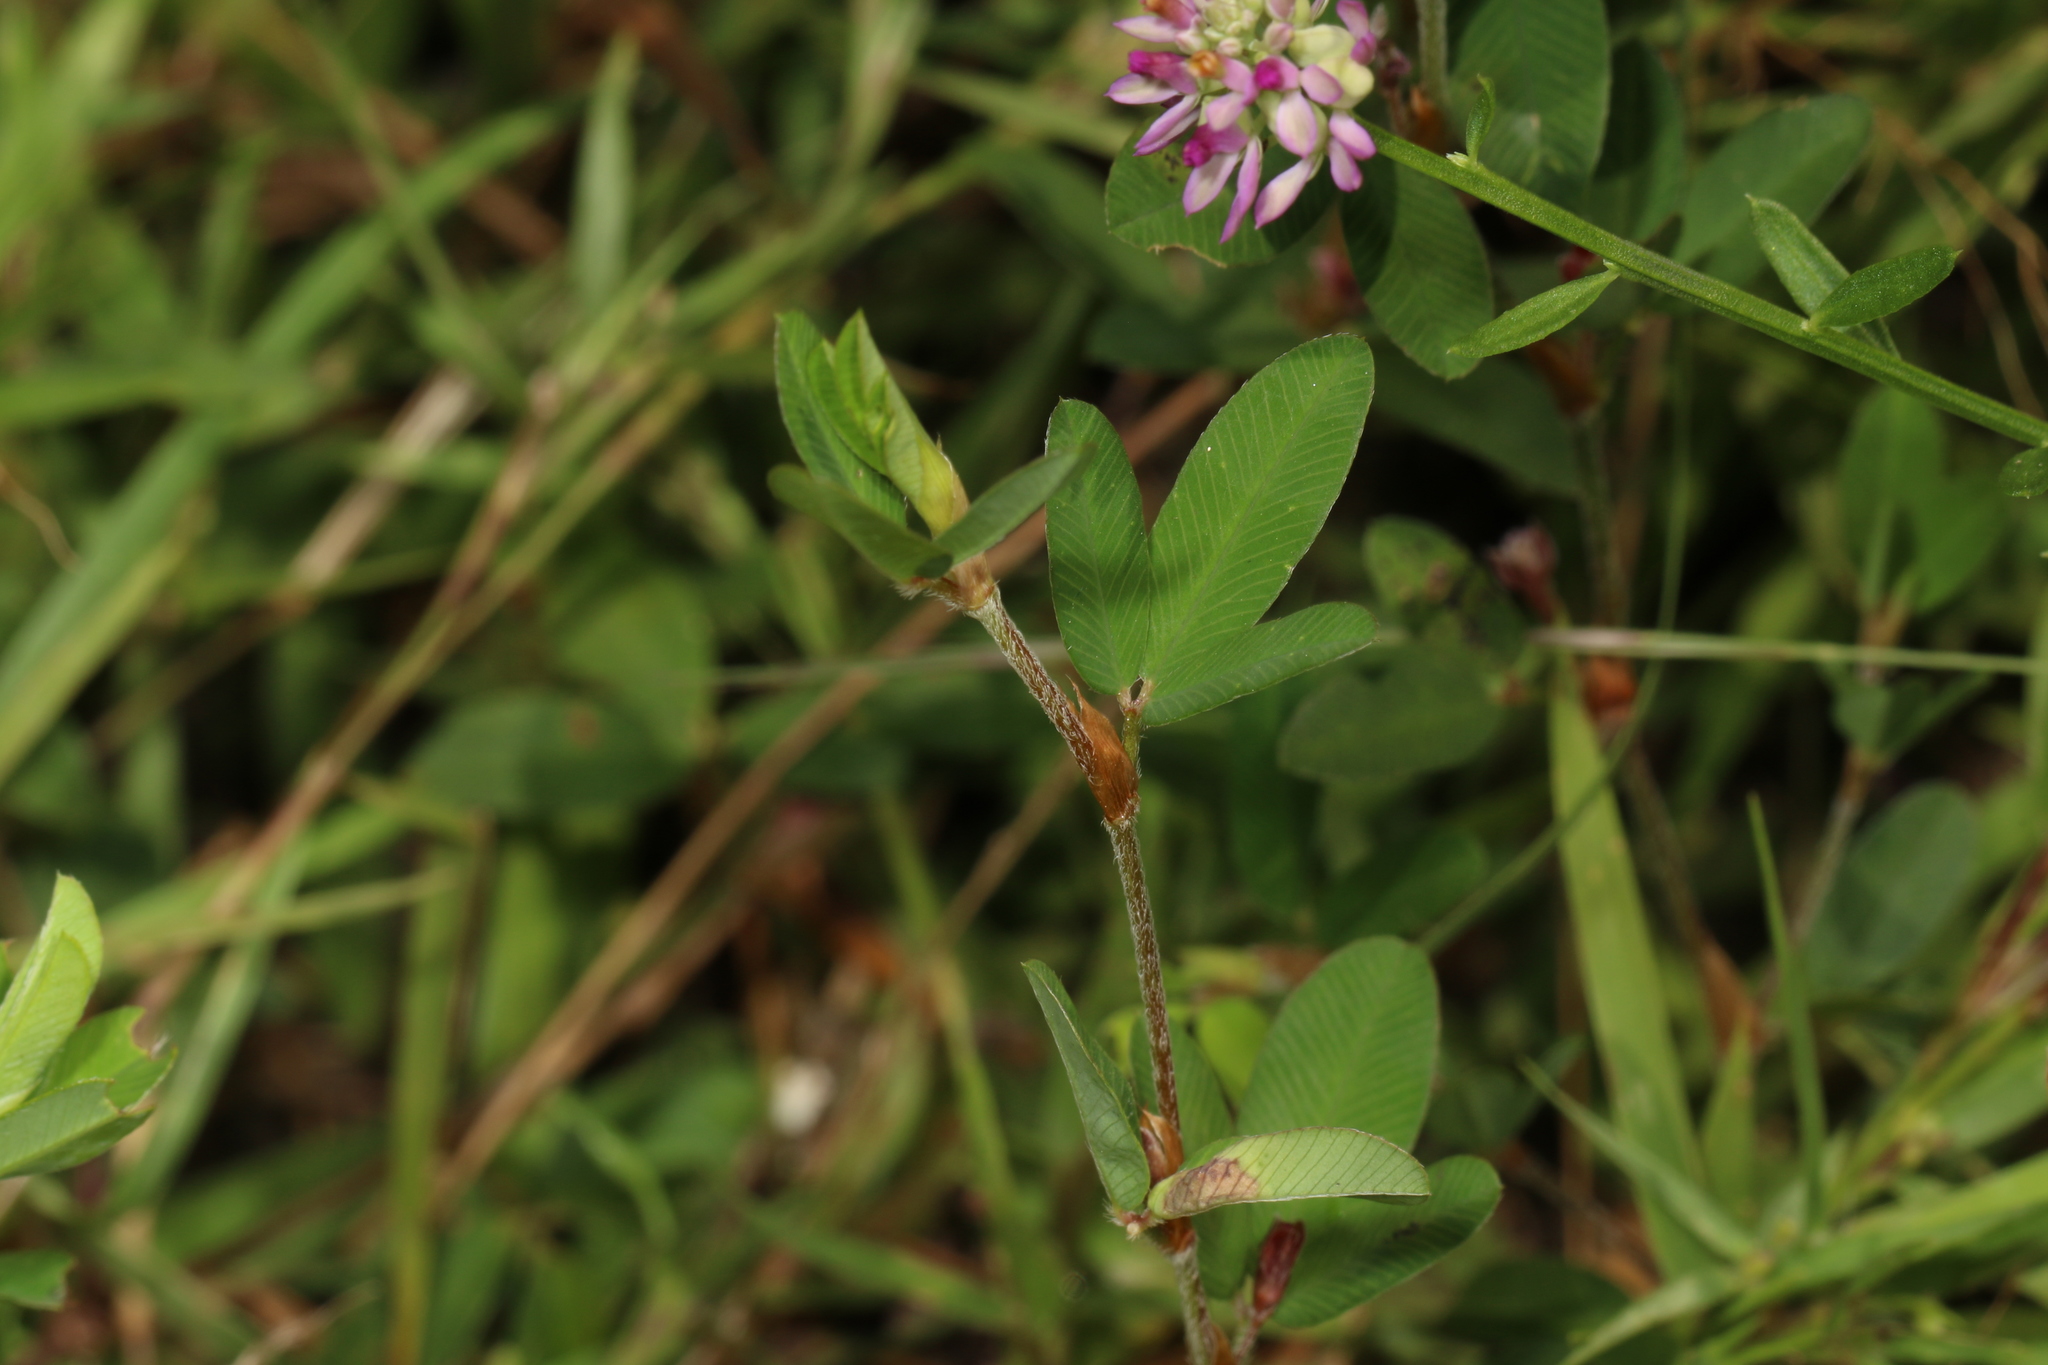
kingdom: Plantae
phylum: Tracheophyta
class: Magnoliopsida
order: Fabales
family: Polygalaceae
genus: Polygala
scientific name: Polygala mariana
